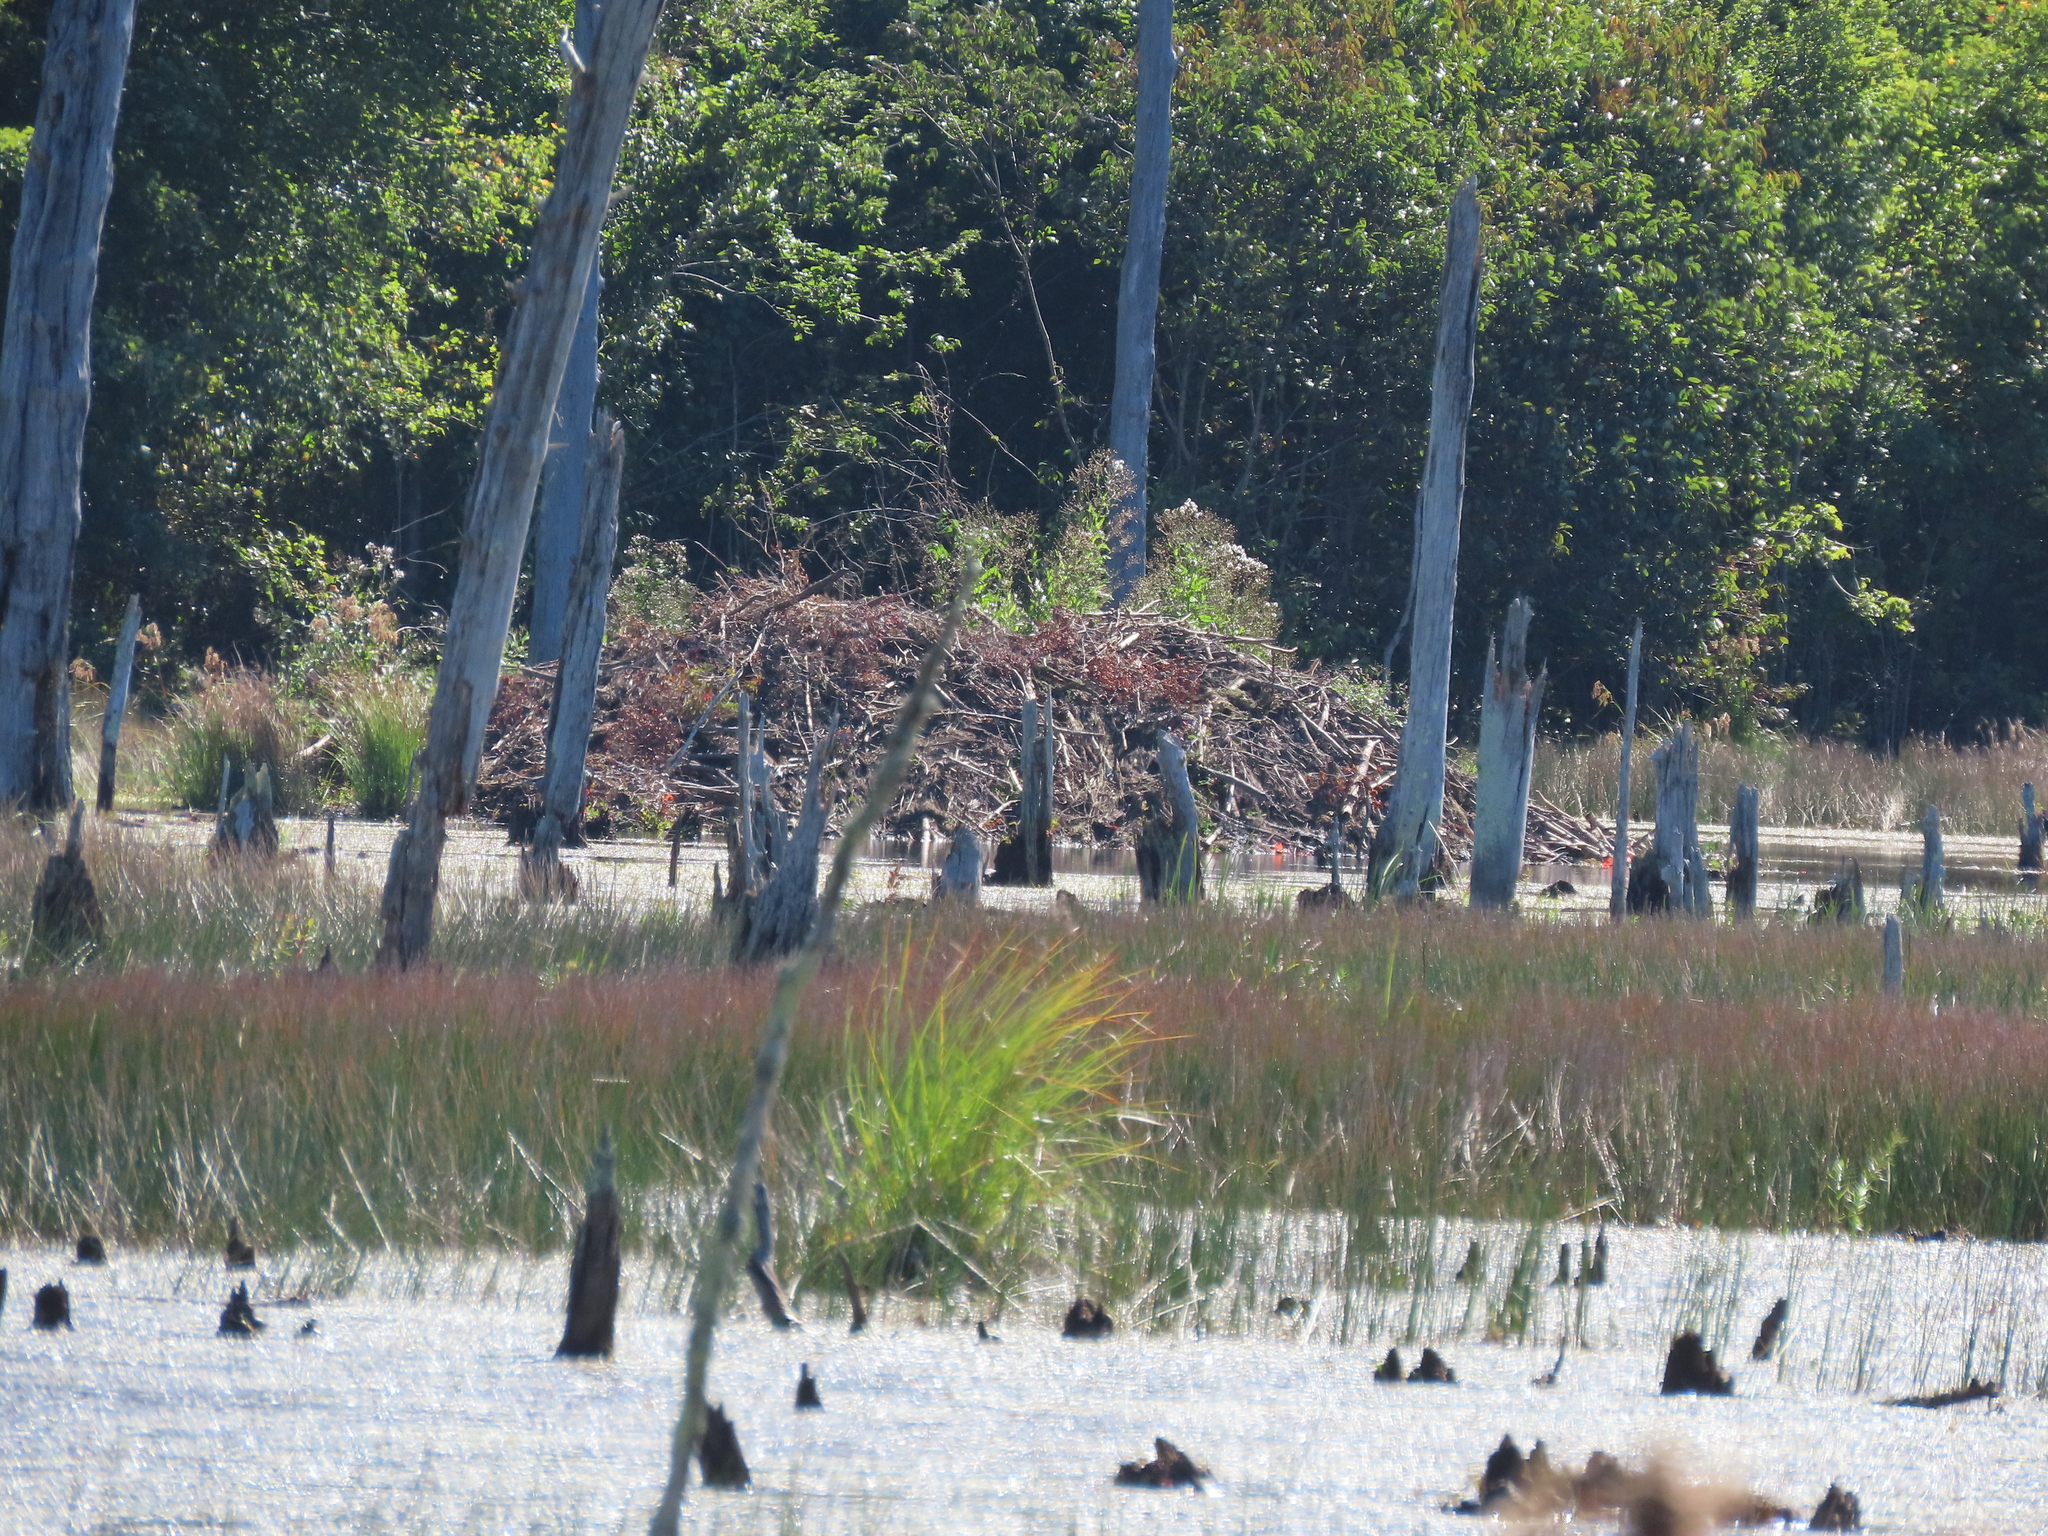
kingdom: Animalia
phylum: Chordata
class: Mammalia
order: Rodentia
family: Castoridae
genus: Castor
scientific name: Castor canadensis
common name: American beaver
